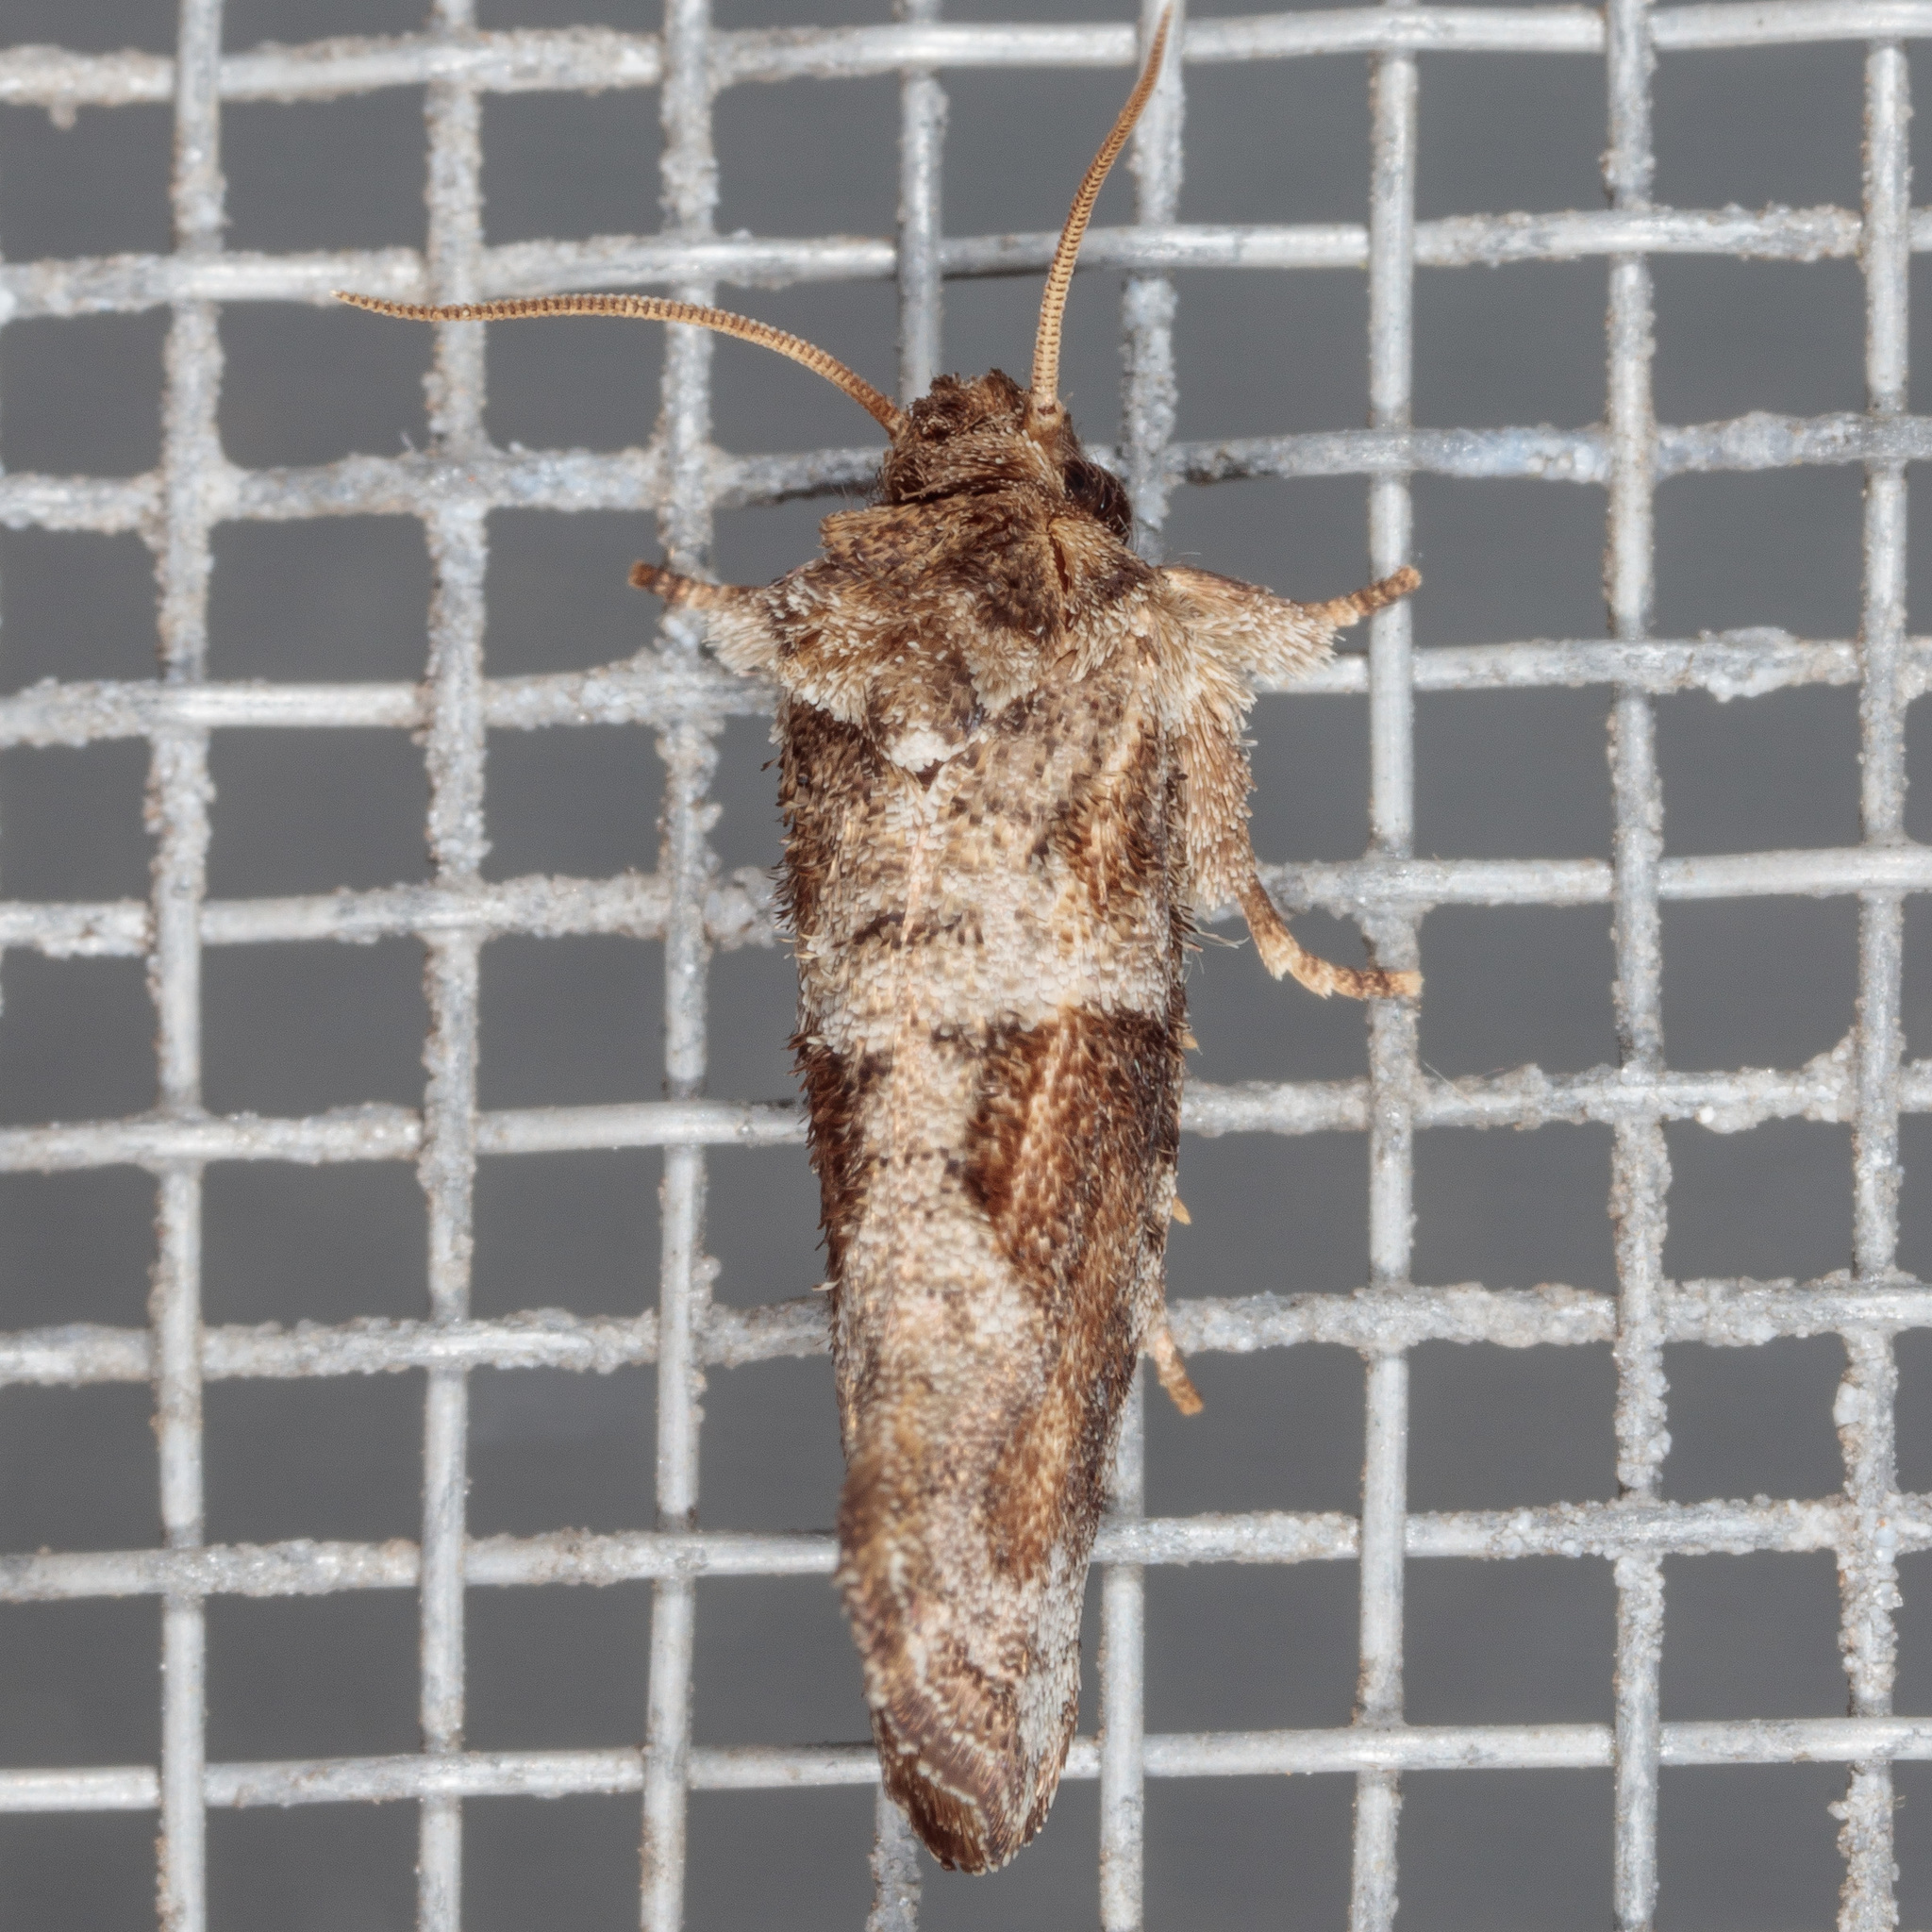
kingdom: Animalia
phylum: Arthropoda
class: Insecta
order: Lepidoptera
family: Tineidae
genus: Acrolophus
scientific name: Acrolophus piger
